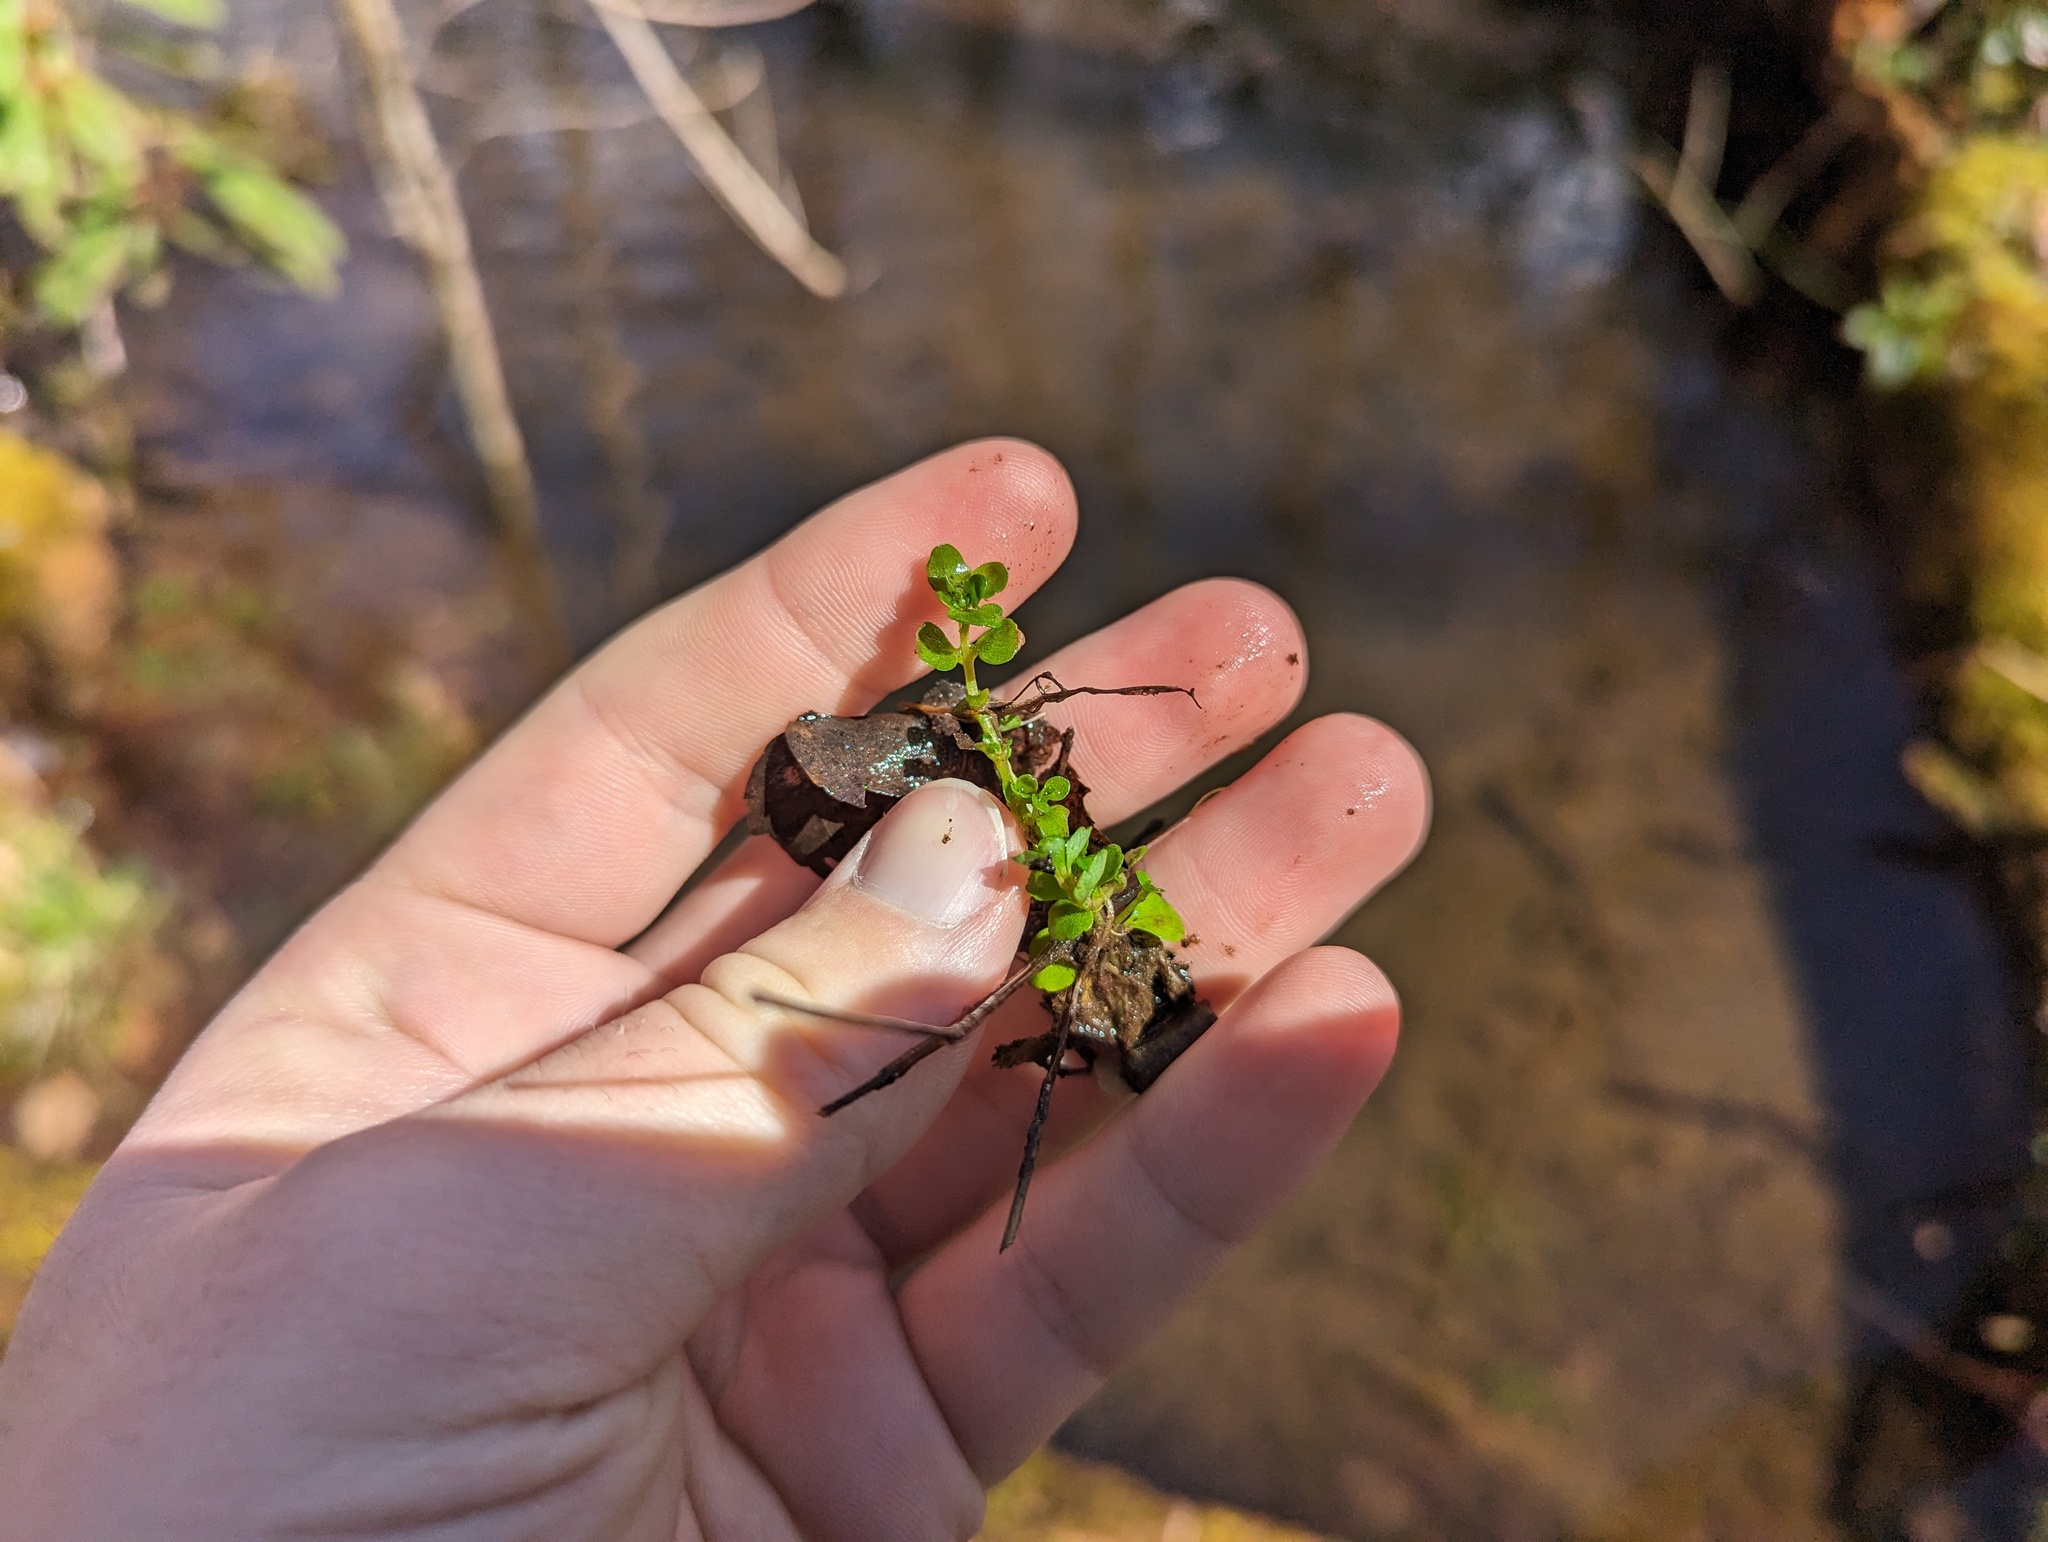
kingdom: Plantae
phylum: Tracheophyta
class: Magnoliopsida
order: Saxifragales
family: Saxifragaceae
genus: Chrysosplenium
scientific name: Chrysosplenium americanum
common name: American golden-saxifrage
